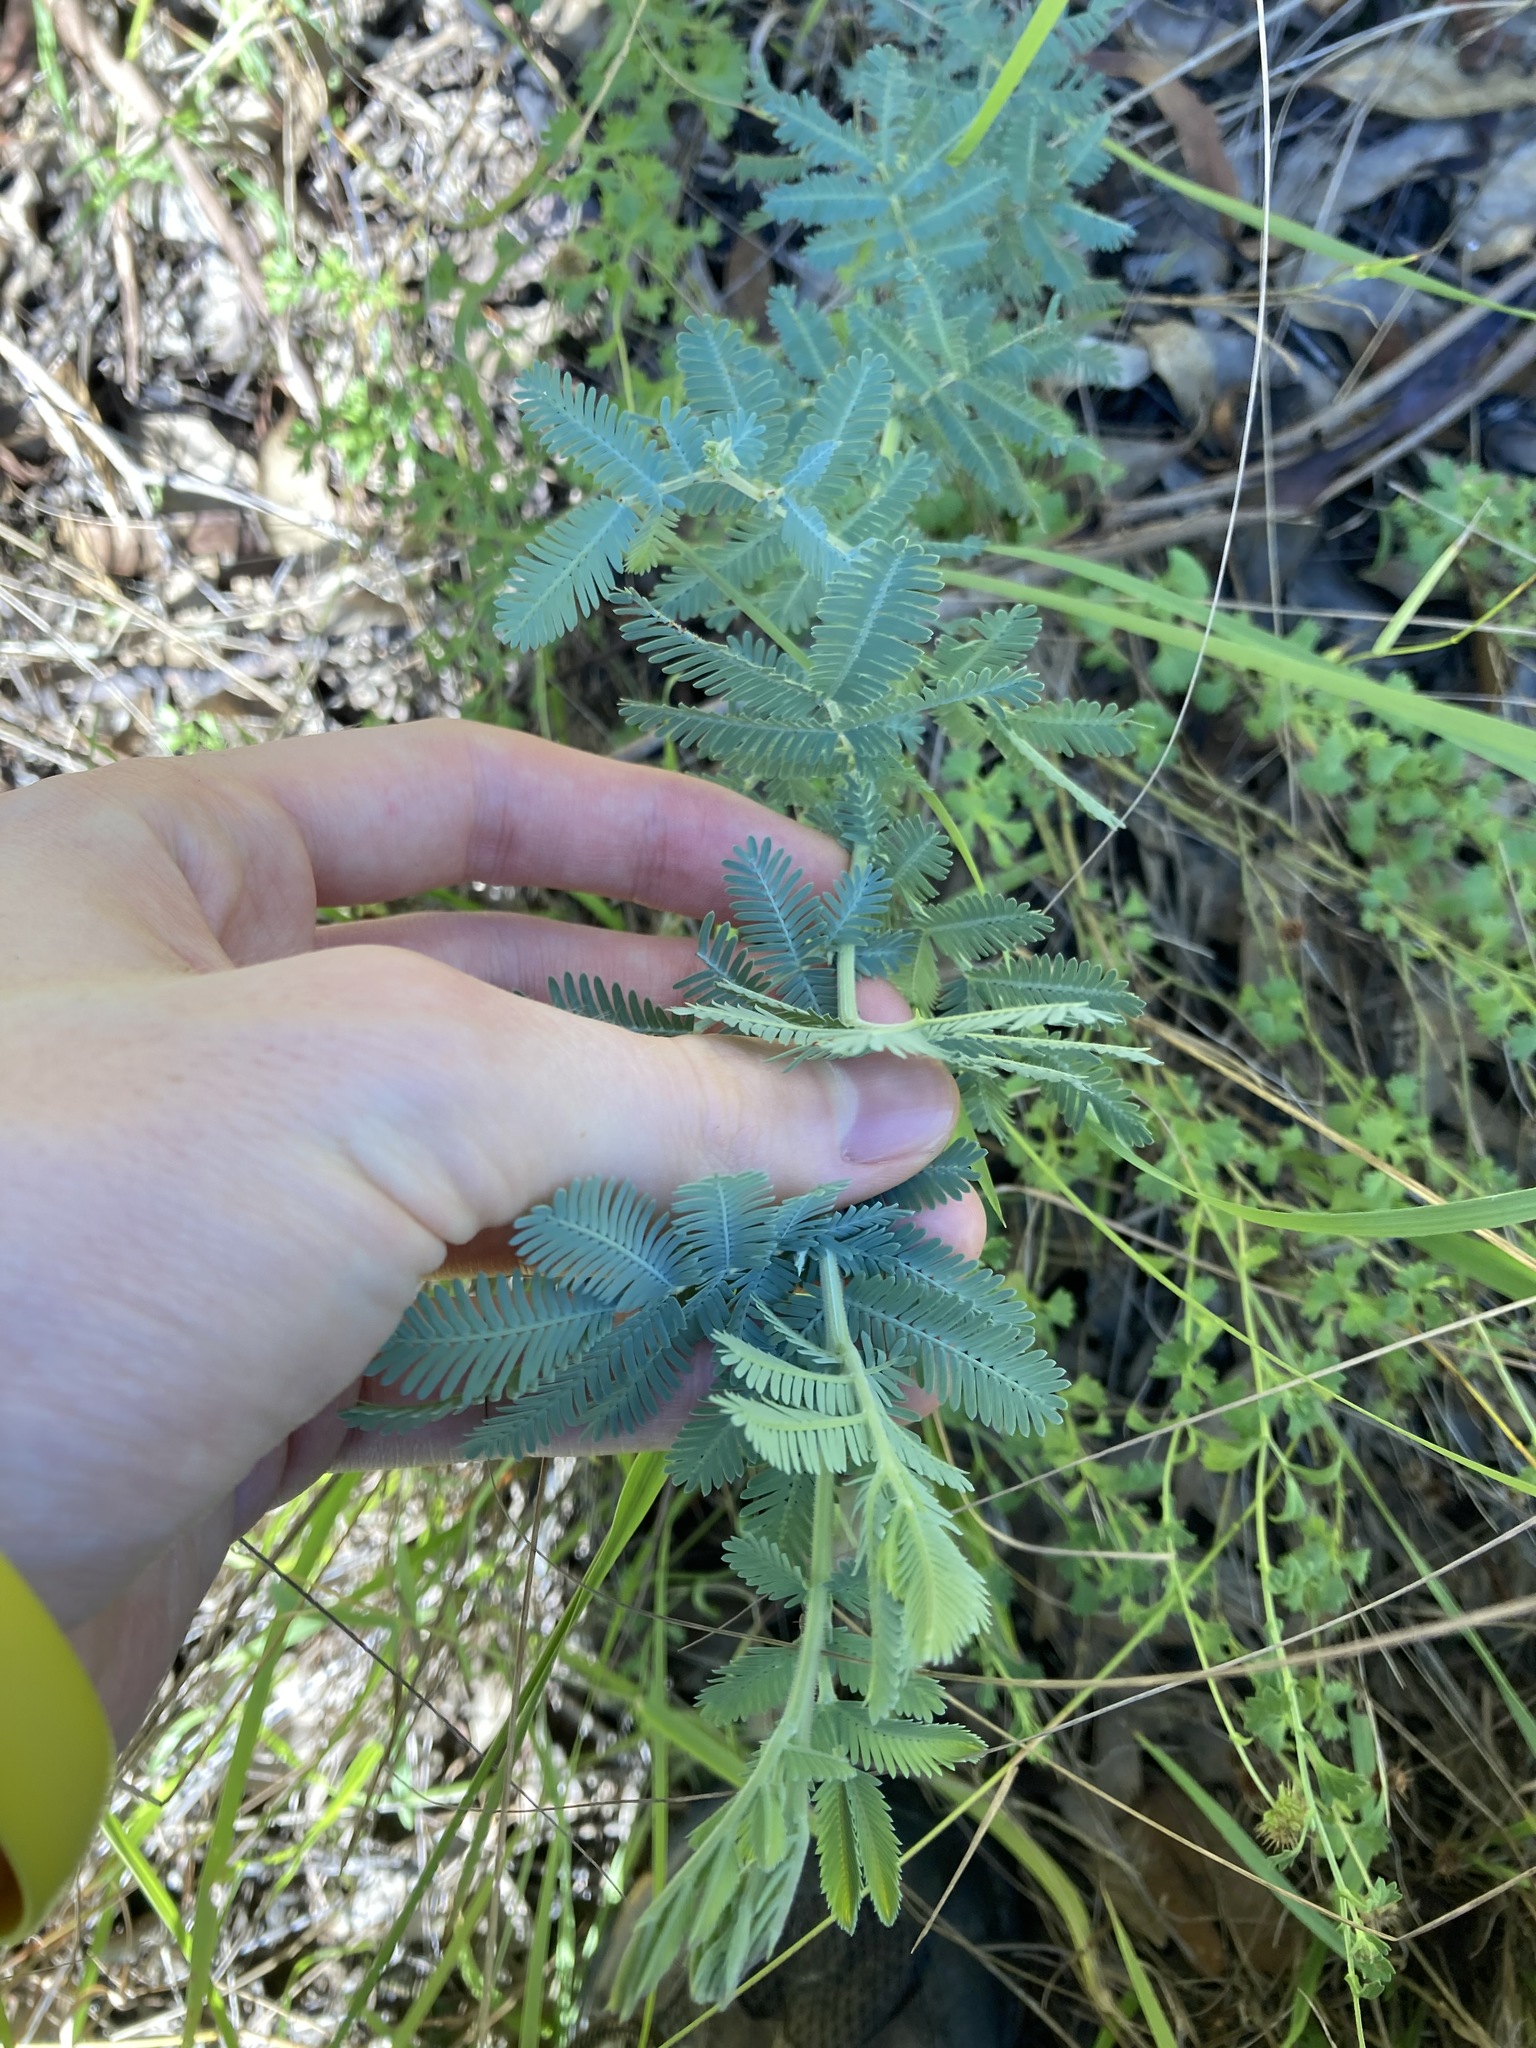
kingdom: Plantae
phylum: Tracheophyta
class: Magnoliopsida
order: Fabales
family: Fabaceae
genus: Acacia
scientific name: Acacia baileyana
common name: Cootamundra wattle
